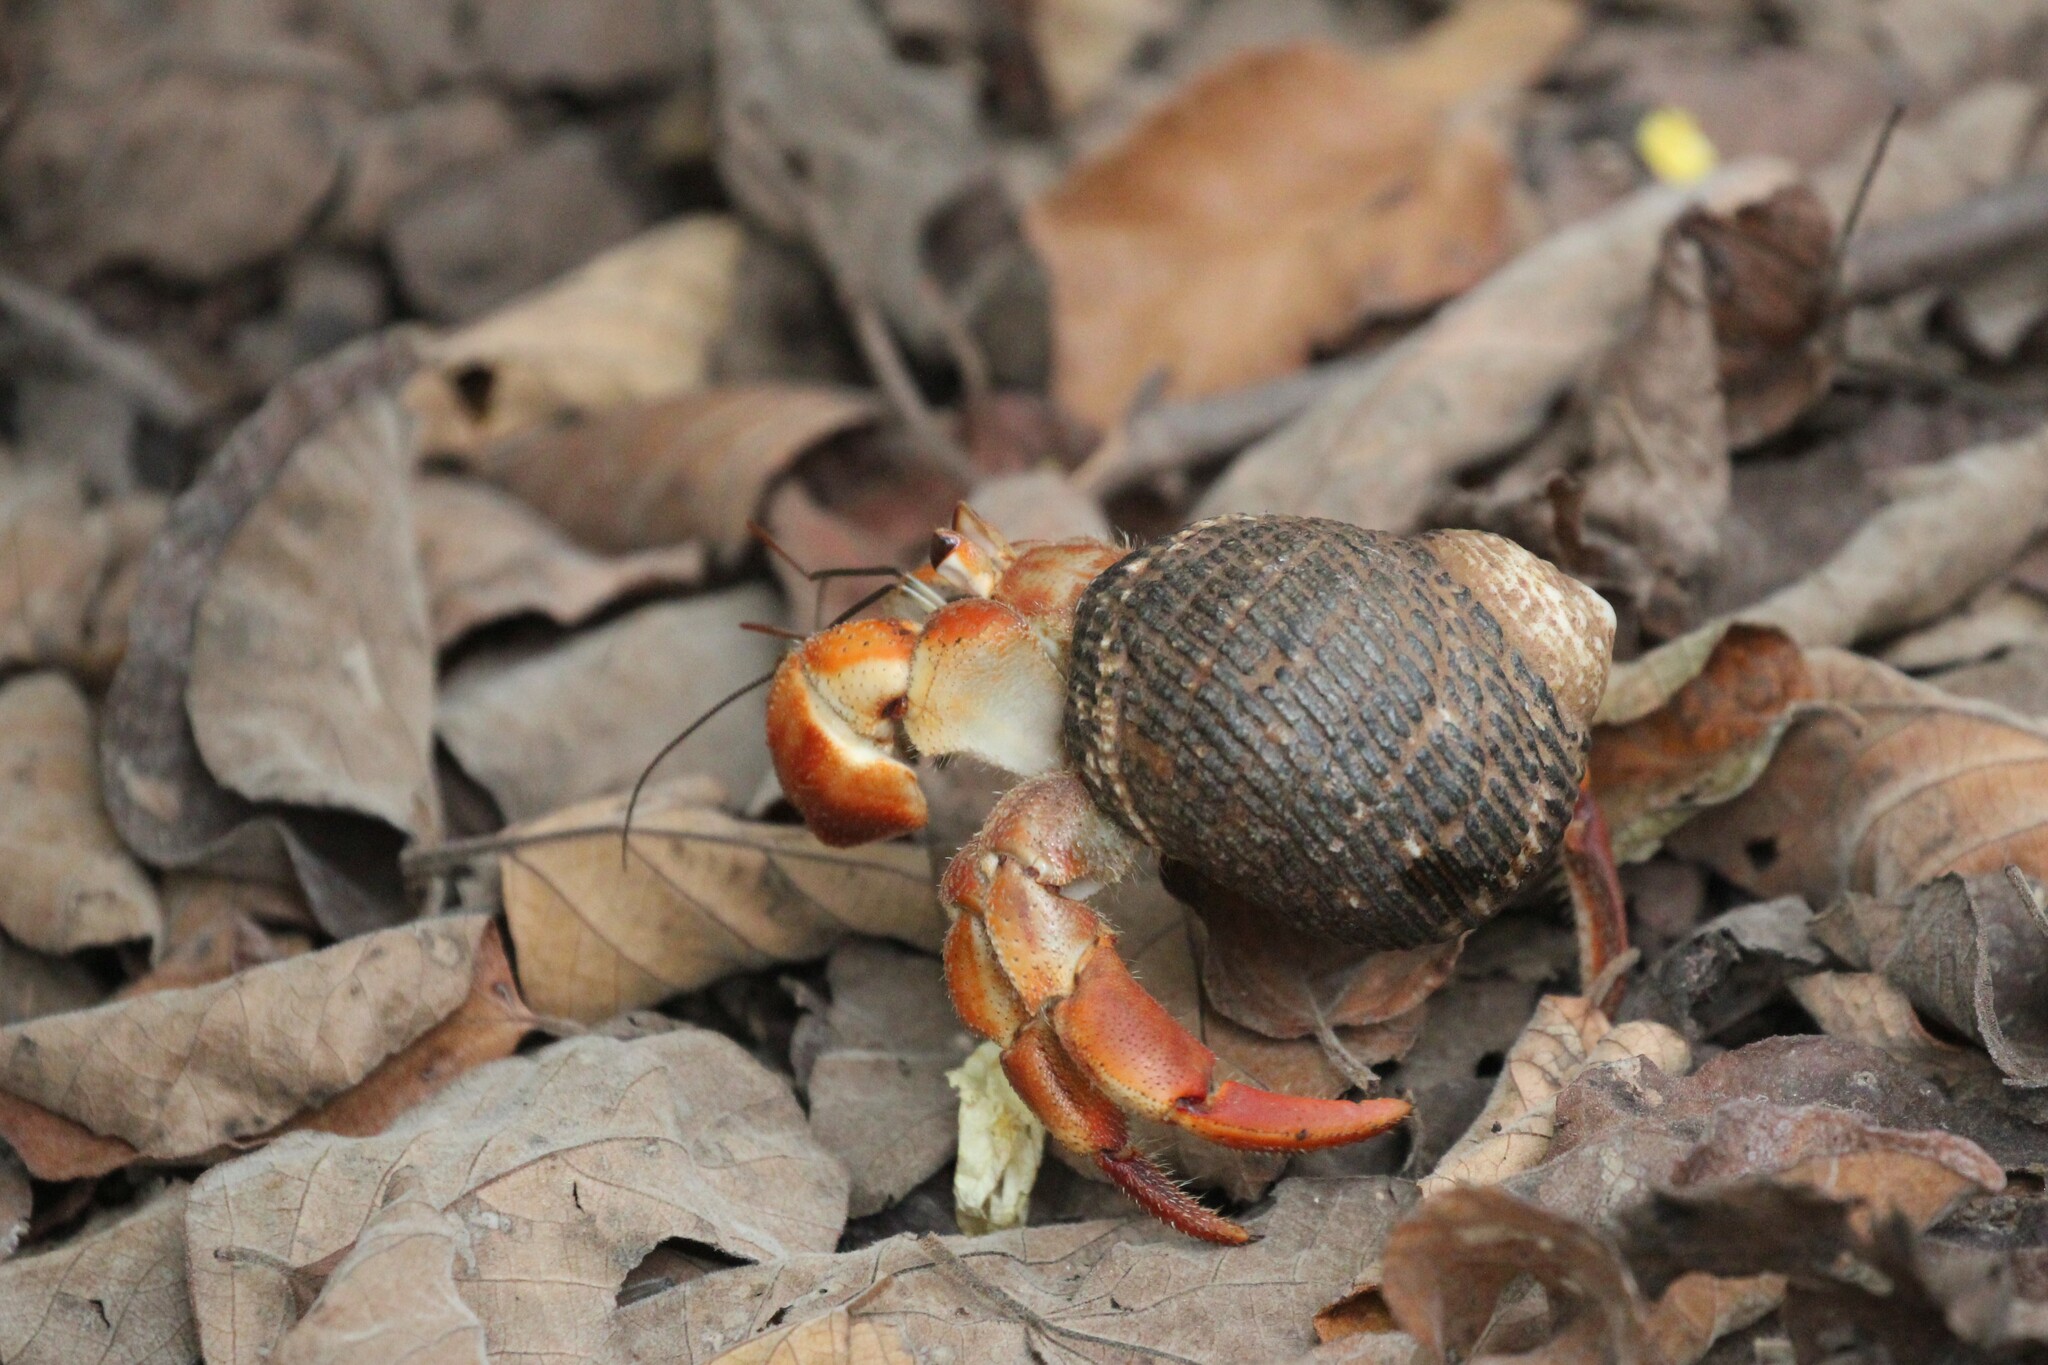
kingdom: Animalia
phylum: Arthropoda
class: Malacostraca
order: Decapoda
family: Coenobitidae
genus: Coenobita
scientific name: Coenobita compressus
